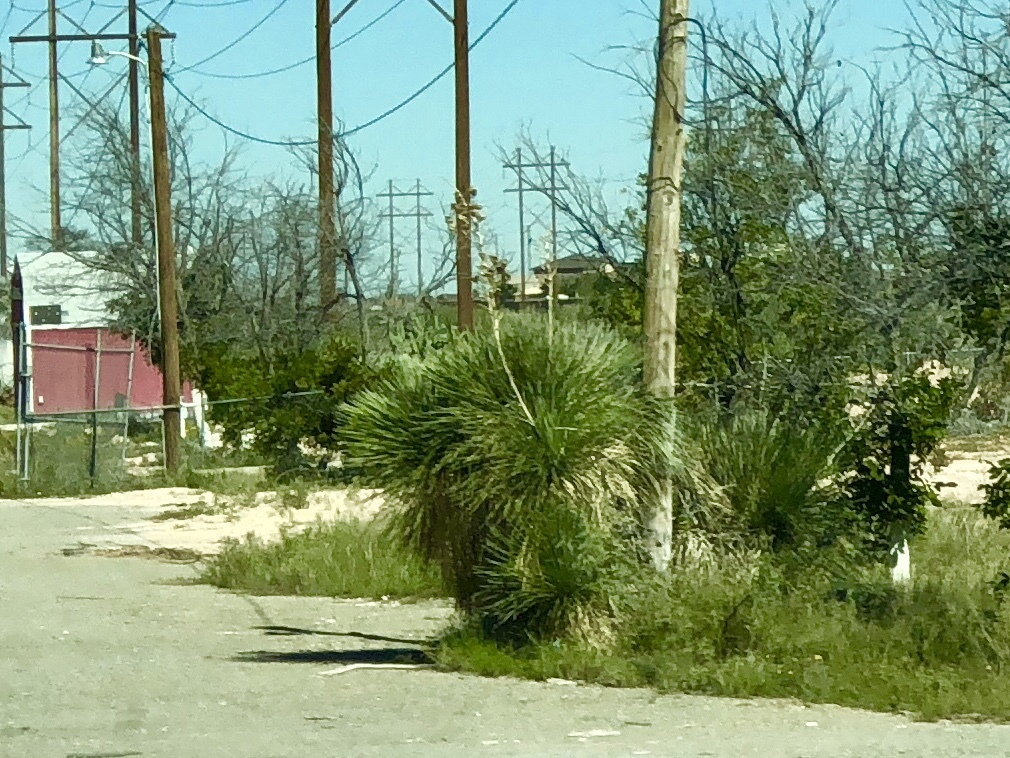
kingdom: Plantae
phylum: Tracheophyta
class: Liliopsida
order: Asparagales
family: Asparagaceae
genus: Yucca
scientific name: Yucca elata
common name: Palmella
